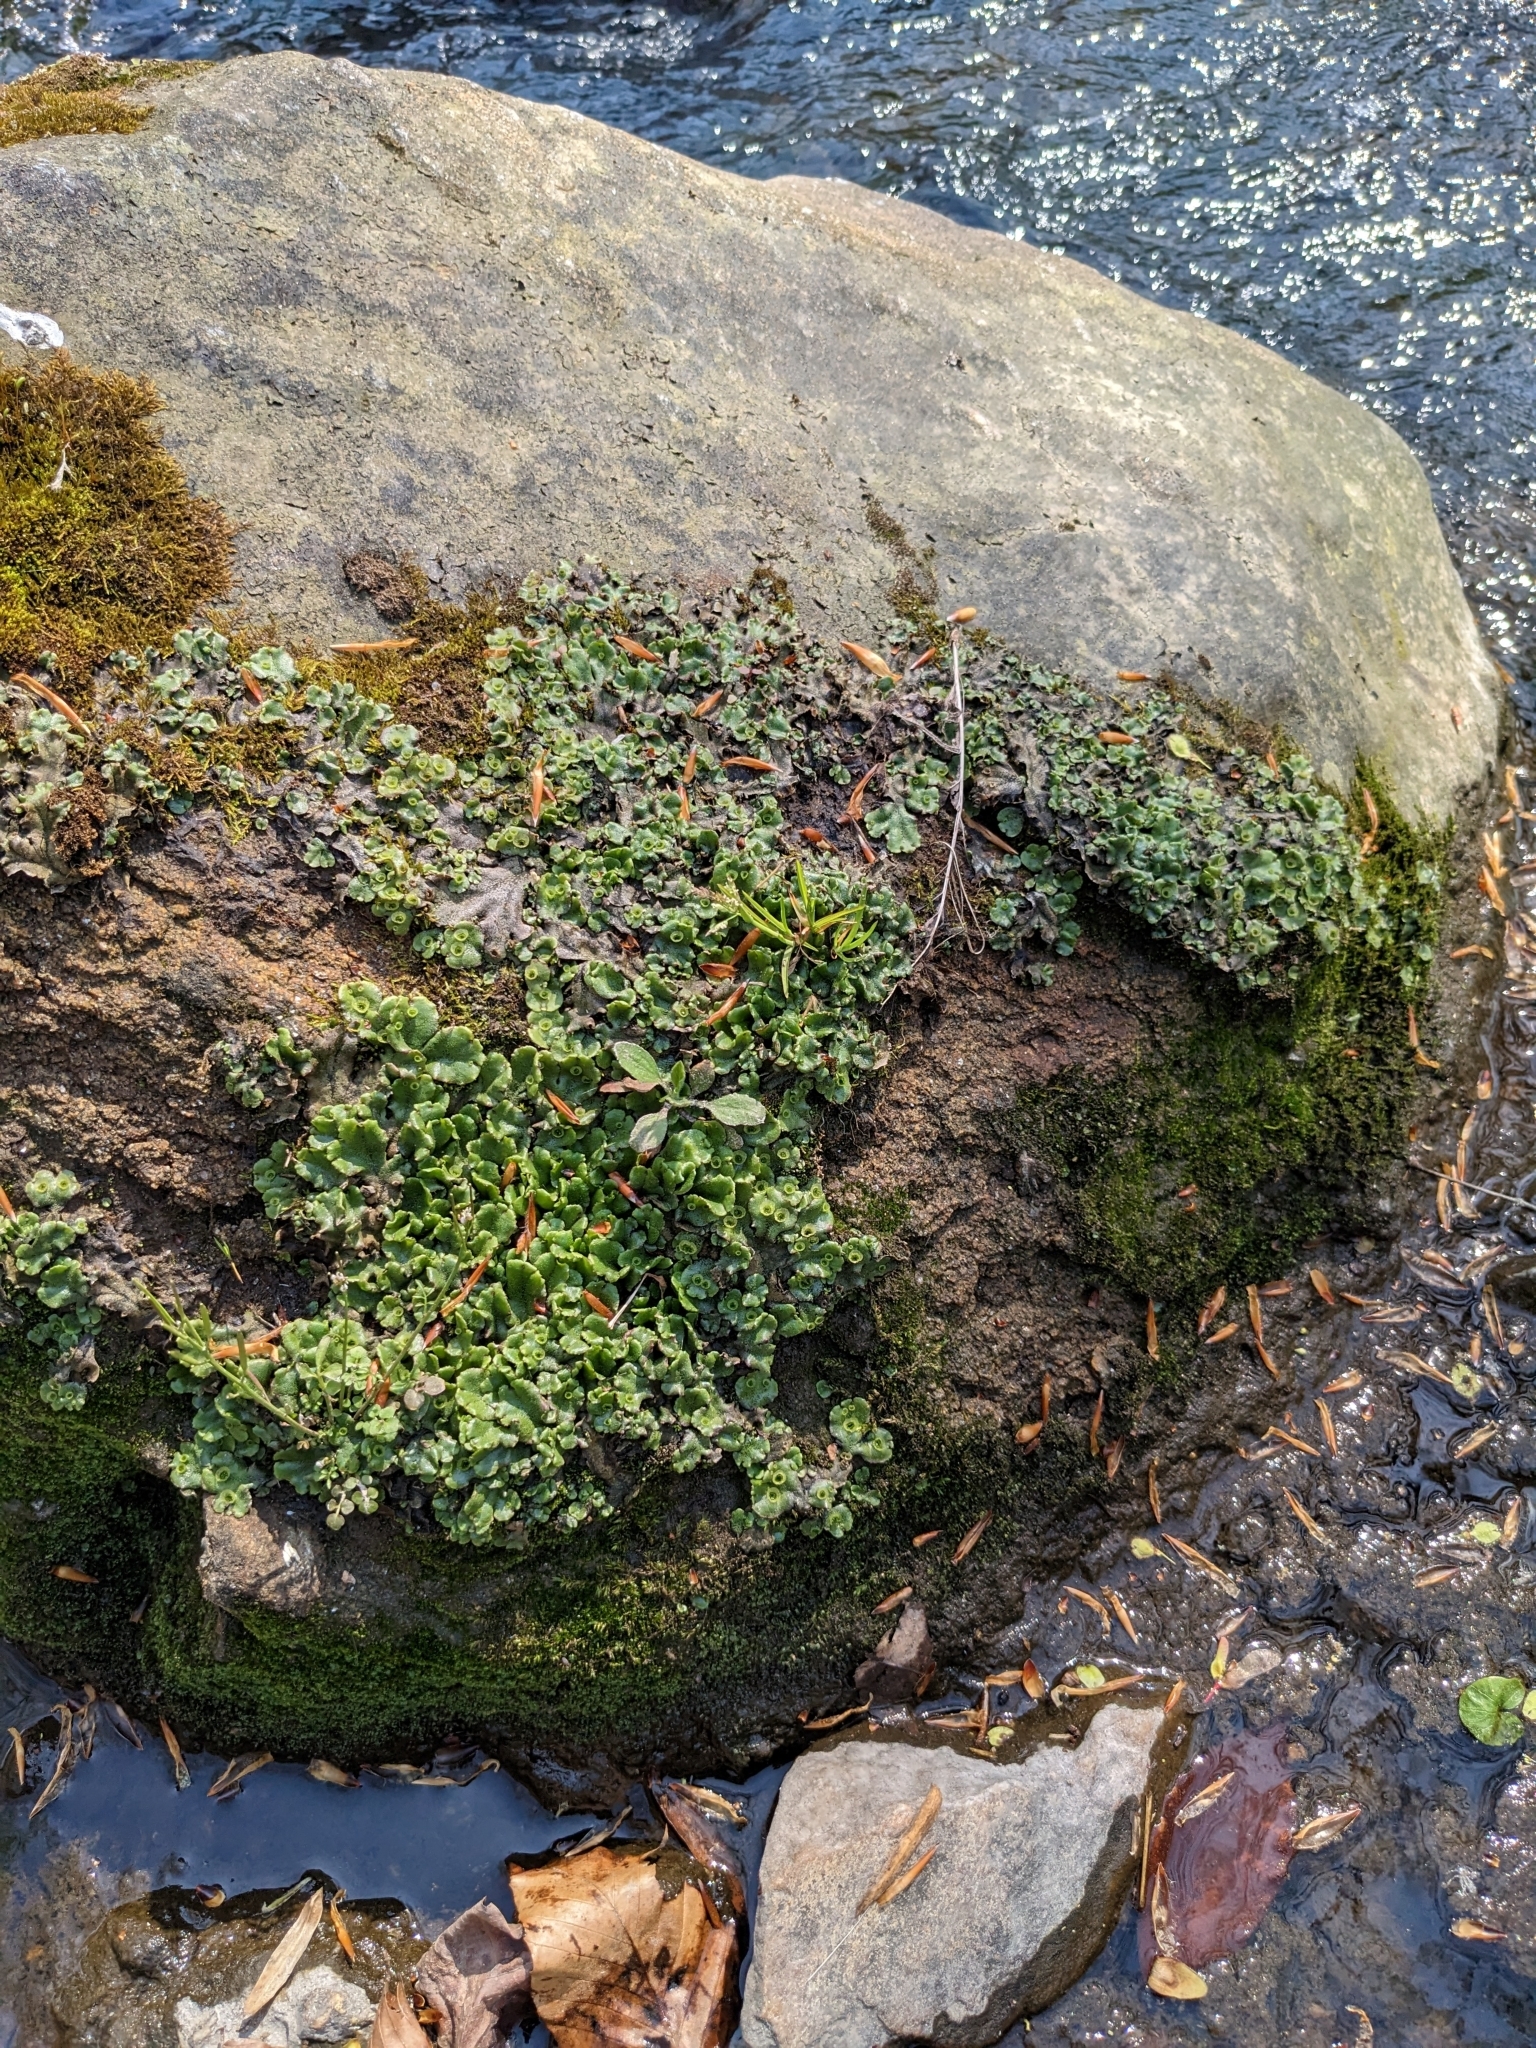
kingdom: Plantae
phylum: Marchantiophyta
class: Marchantiopsida
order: Marchantiales
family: Marchantiaceae
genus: Marchantia
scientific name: Marchantia polymorpha
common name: Common liverwort
